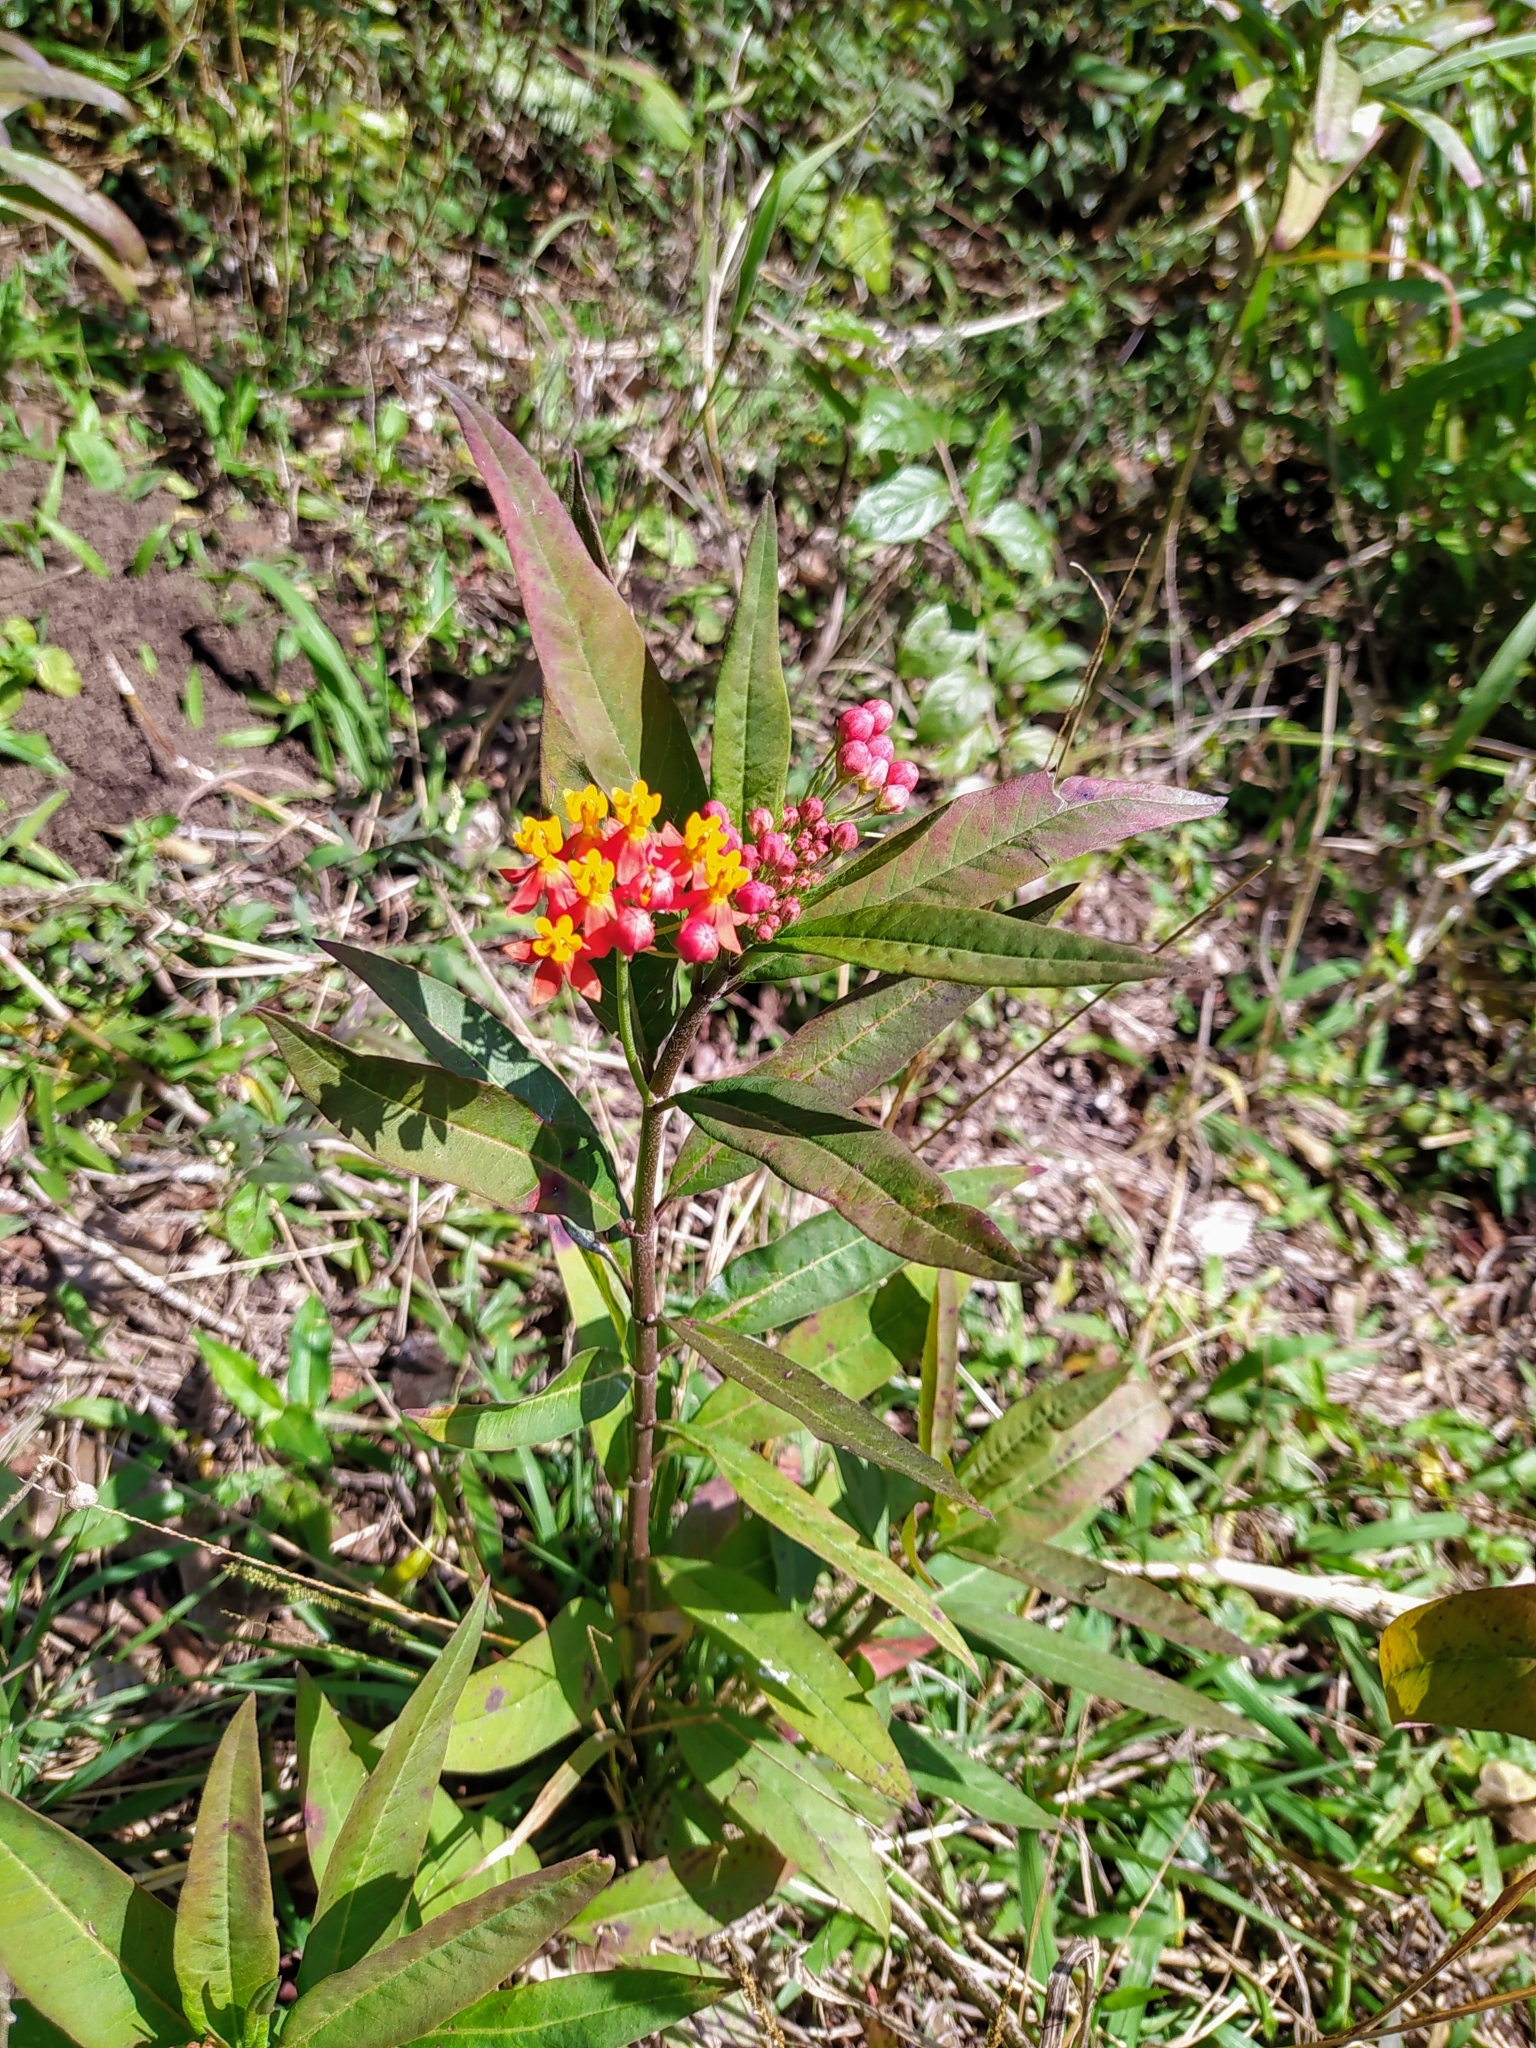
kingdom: Plantae
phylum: Tracheophyta
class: Magnoliopsida
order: Gentianales
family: Apocynaceae
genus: Asclepias
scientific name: Asclepias curassavica
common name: Bloodflower
